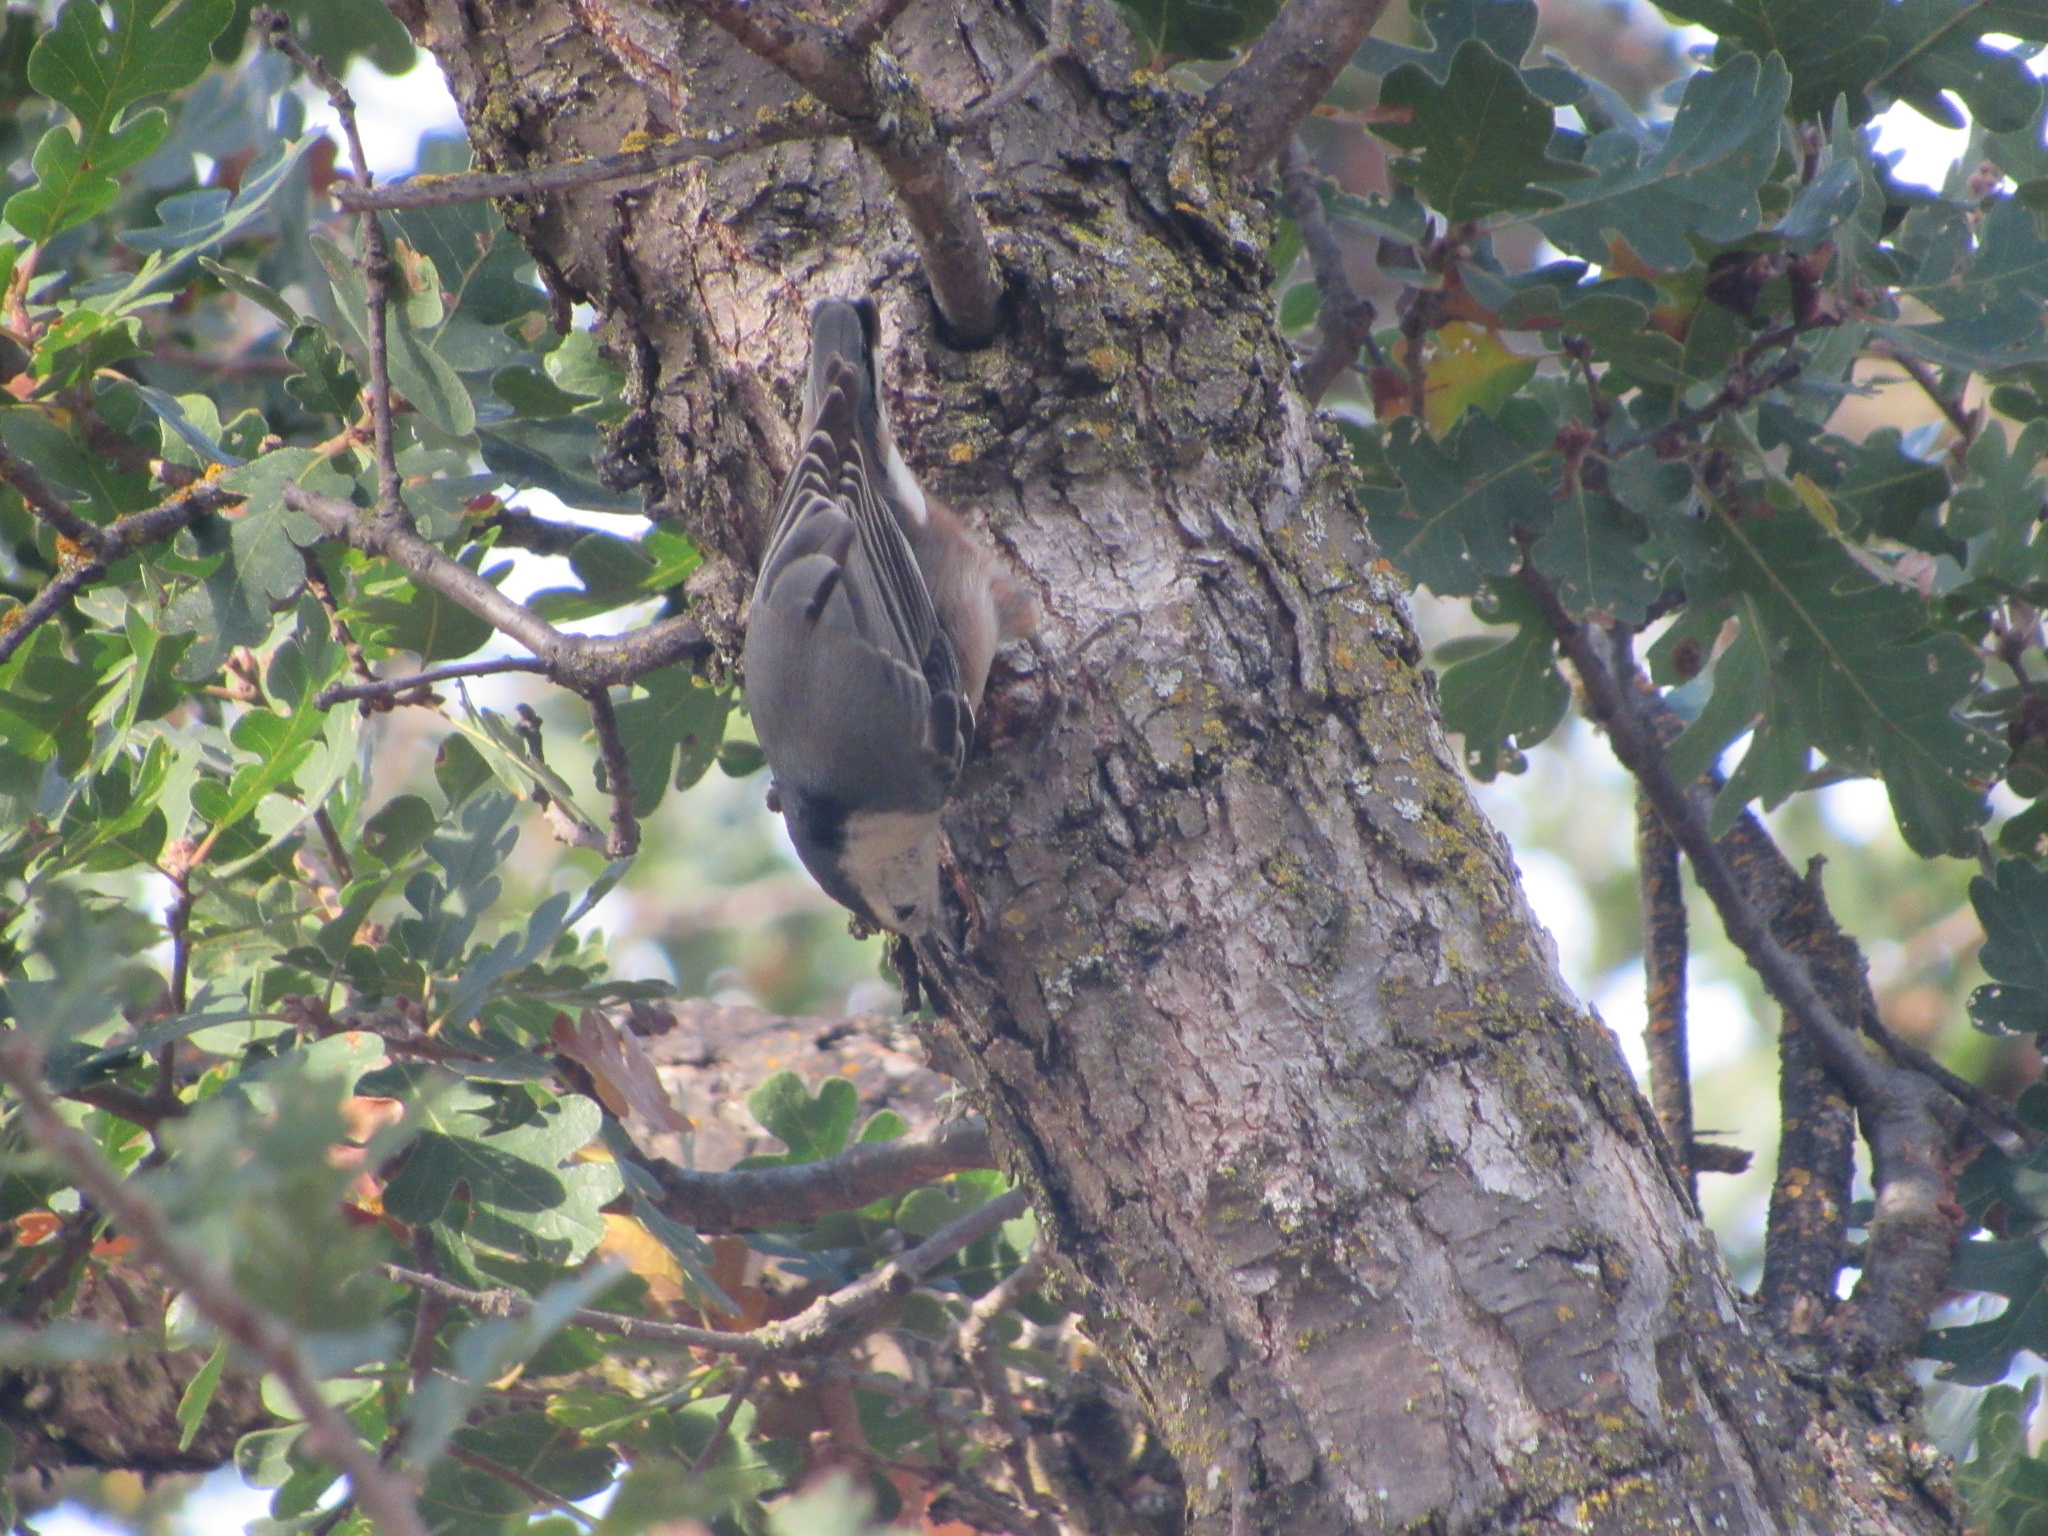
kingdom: Animalia
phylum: Chordata
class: Aves
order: Passeriformes
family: Sittidae
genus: Sitta
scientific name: Sitta carolinensis
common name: White-breasted nuthatch
